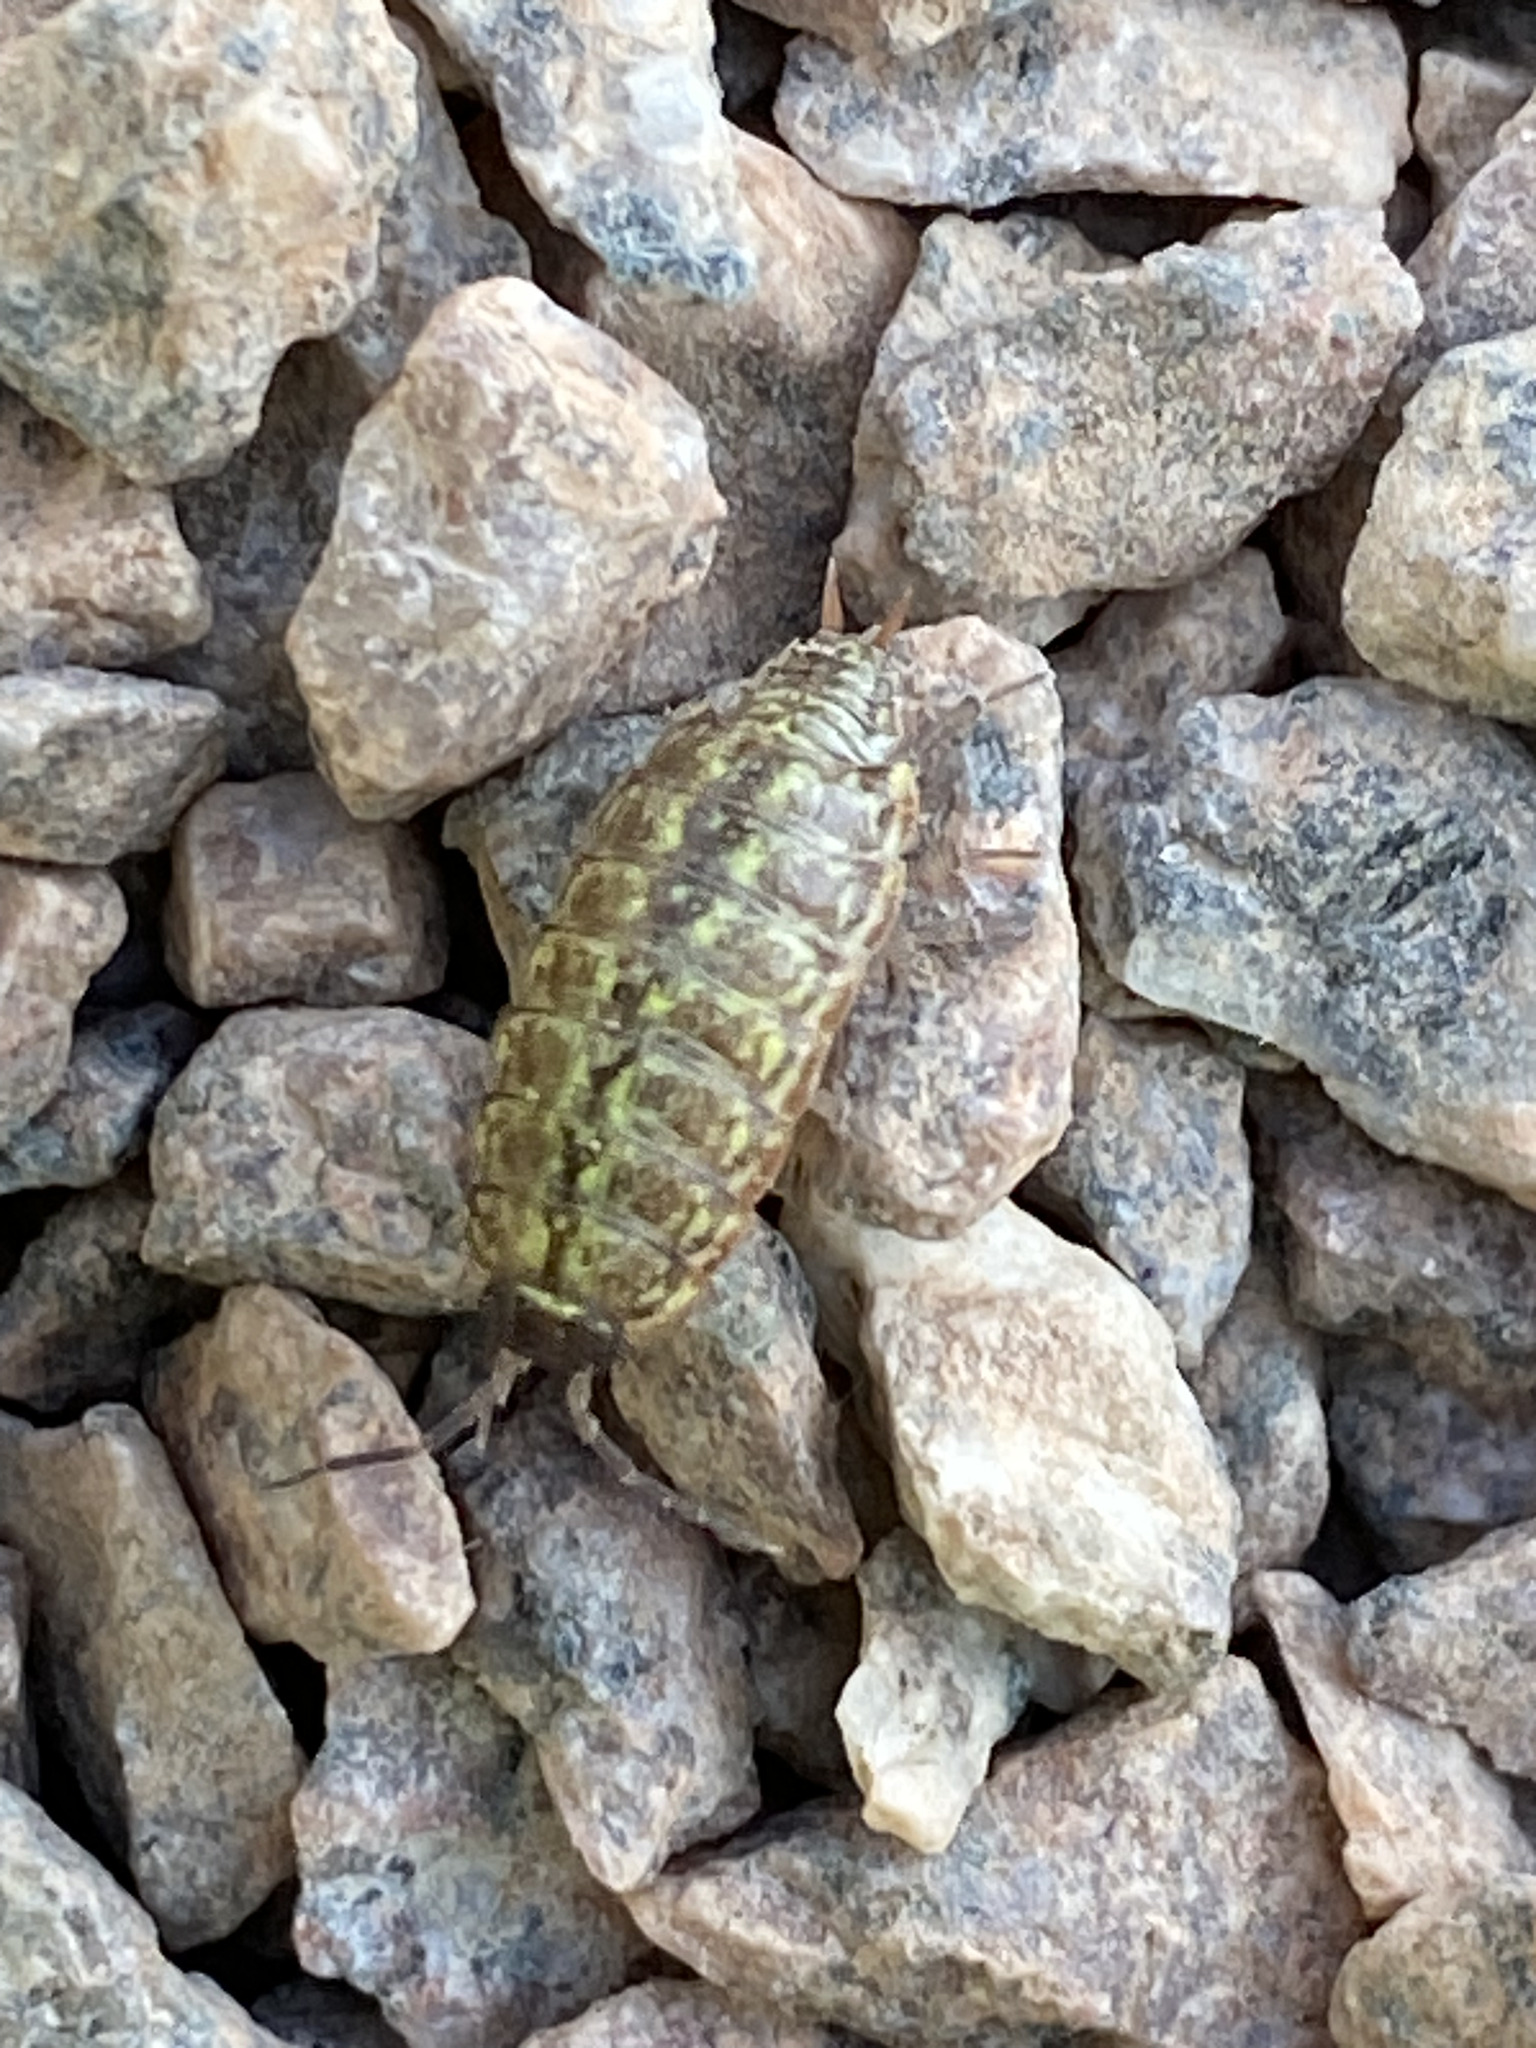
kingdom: Animalia
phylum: Arthropoda
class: Malacostraca
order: Isopoda
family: Philosciidae
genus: Philoscia
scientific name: Philoscia muscorum
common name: Common striped woodlouse
